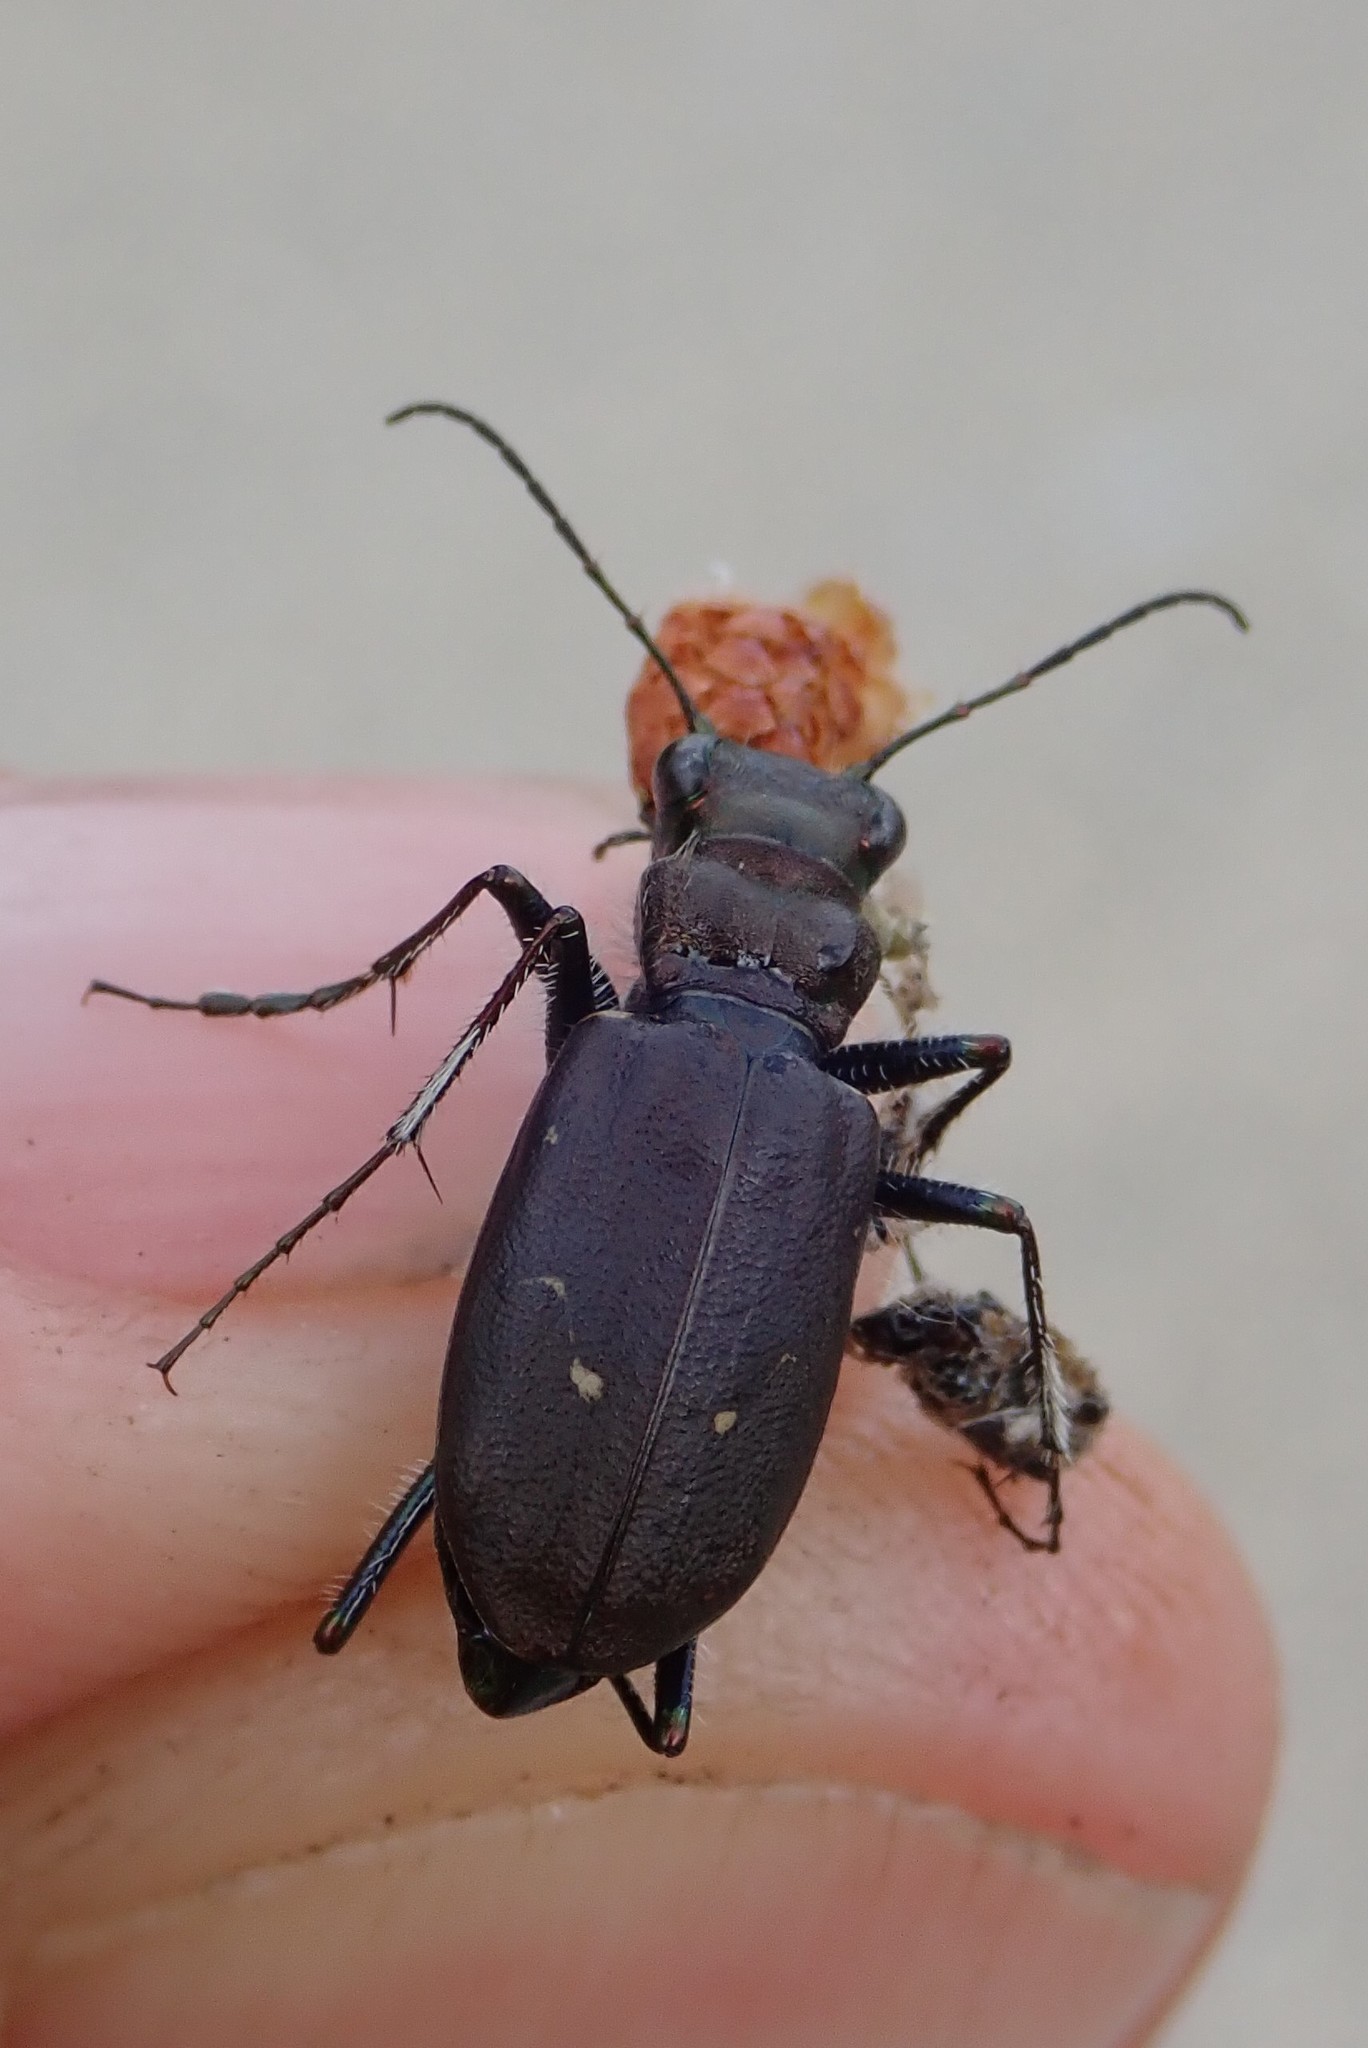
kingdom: Animalia
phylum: Arthropoda
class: Insecta
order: Coleoptera
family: Carabidae
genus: Cicindela
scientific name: Cicindela longilabris
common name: Boreal long-lipped tiger beetle
